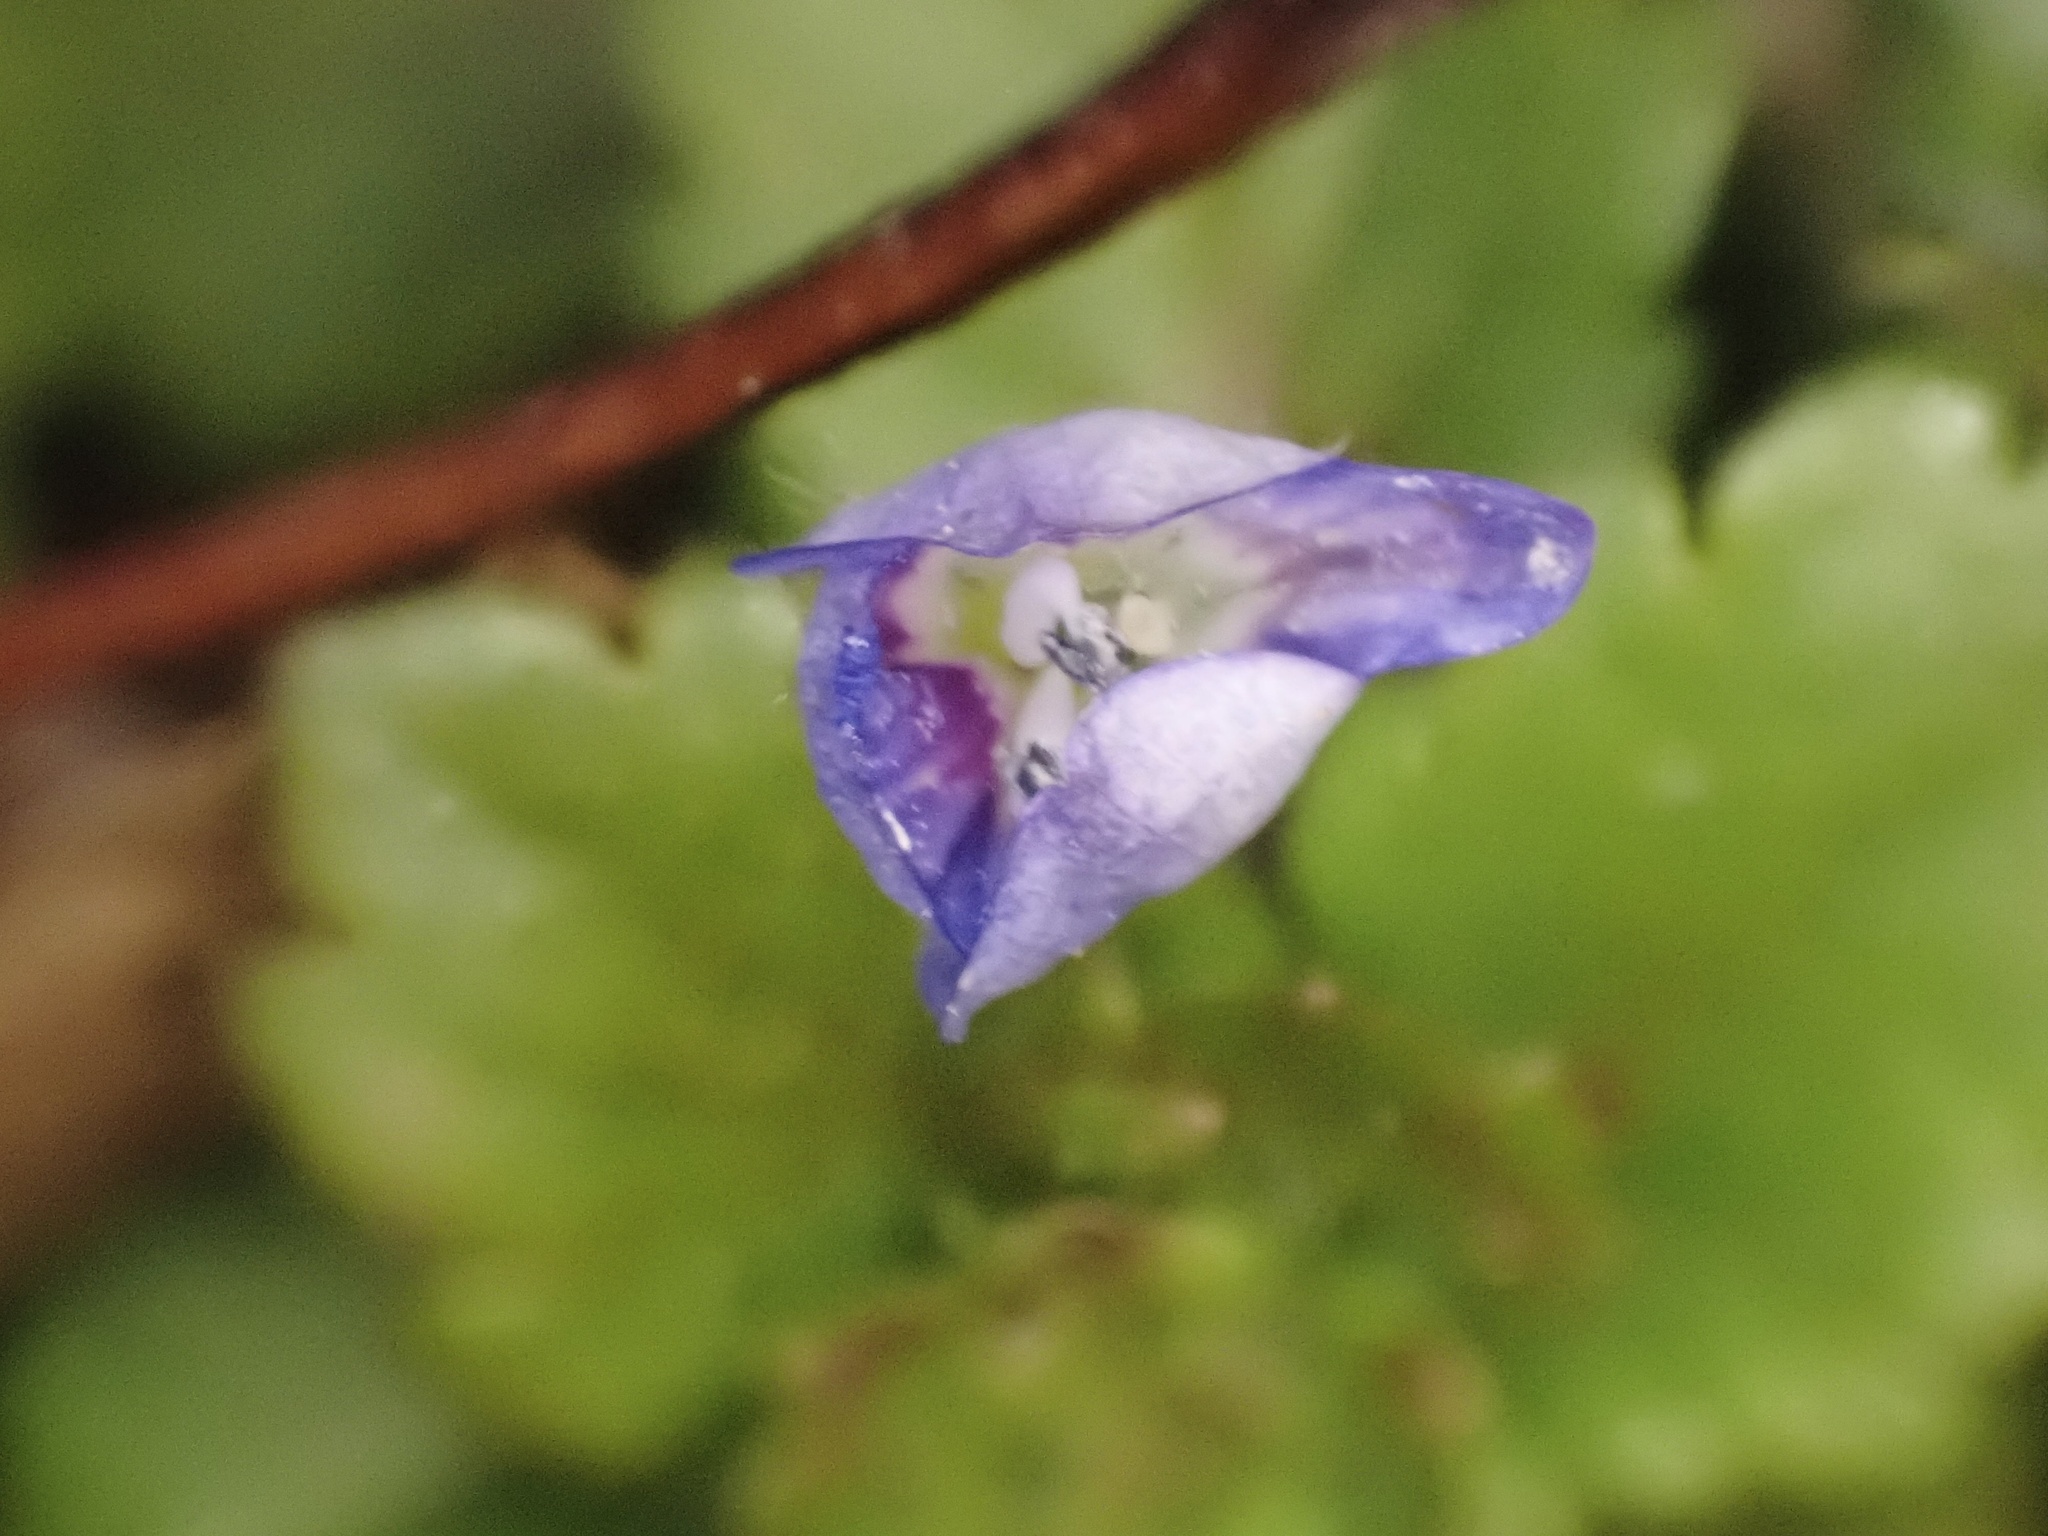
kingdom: Plantae
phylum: Tracheophyta
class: Magnoliopsida
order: Lamiales
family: Plantaginaceae
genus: Veronica
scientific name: Veronica persica
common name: Common field-speedwell
